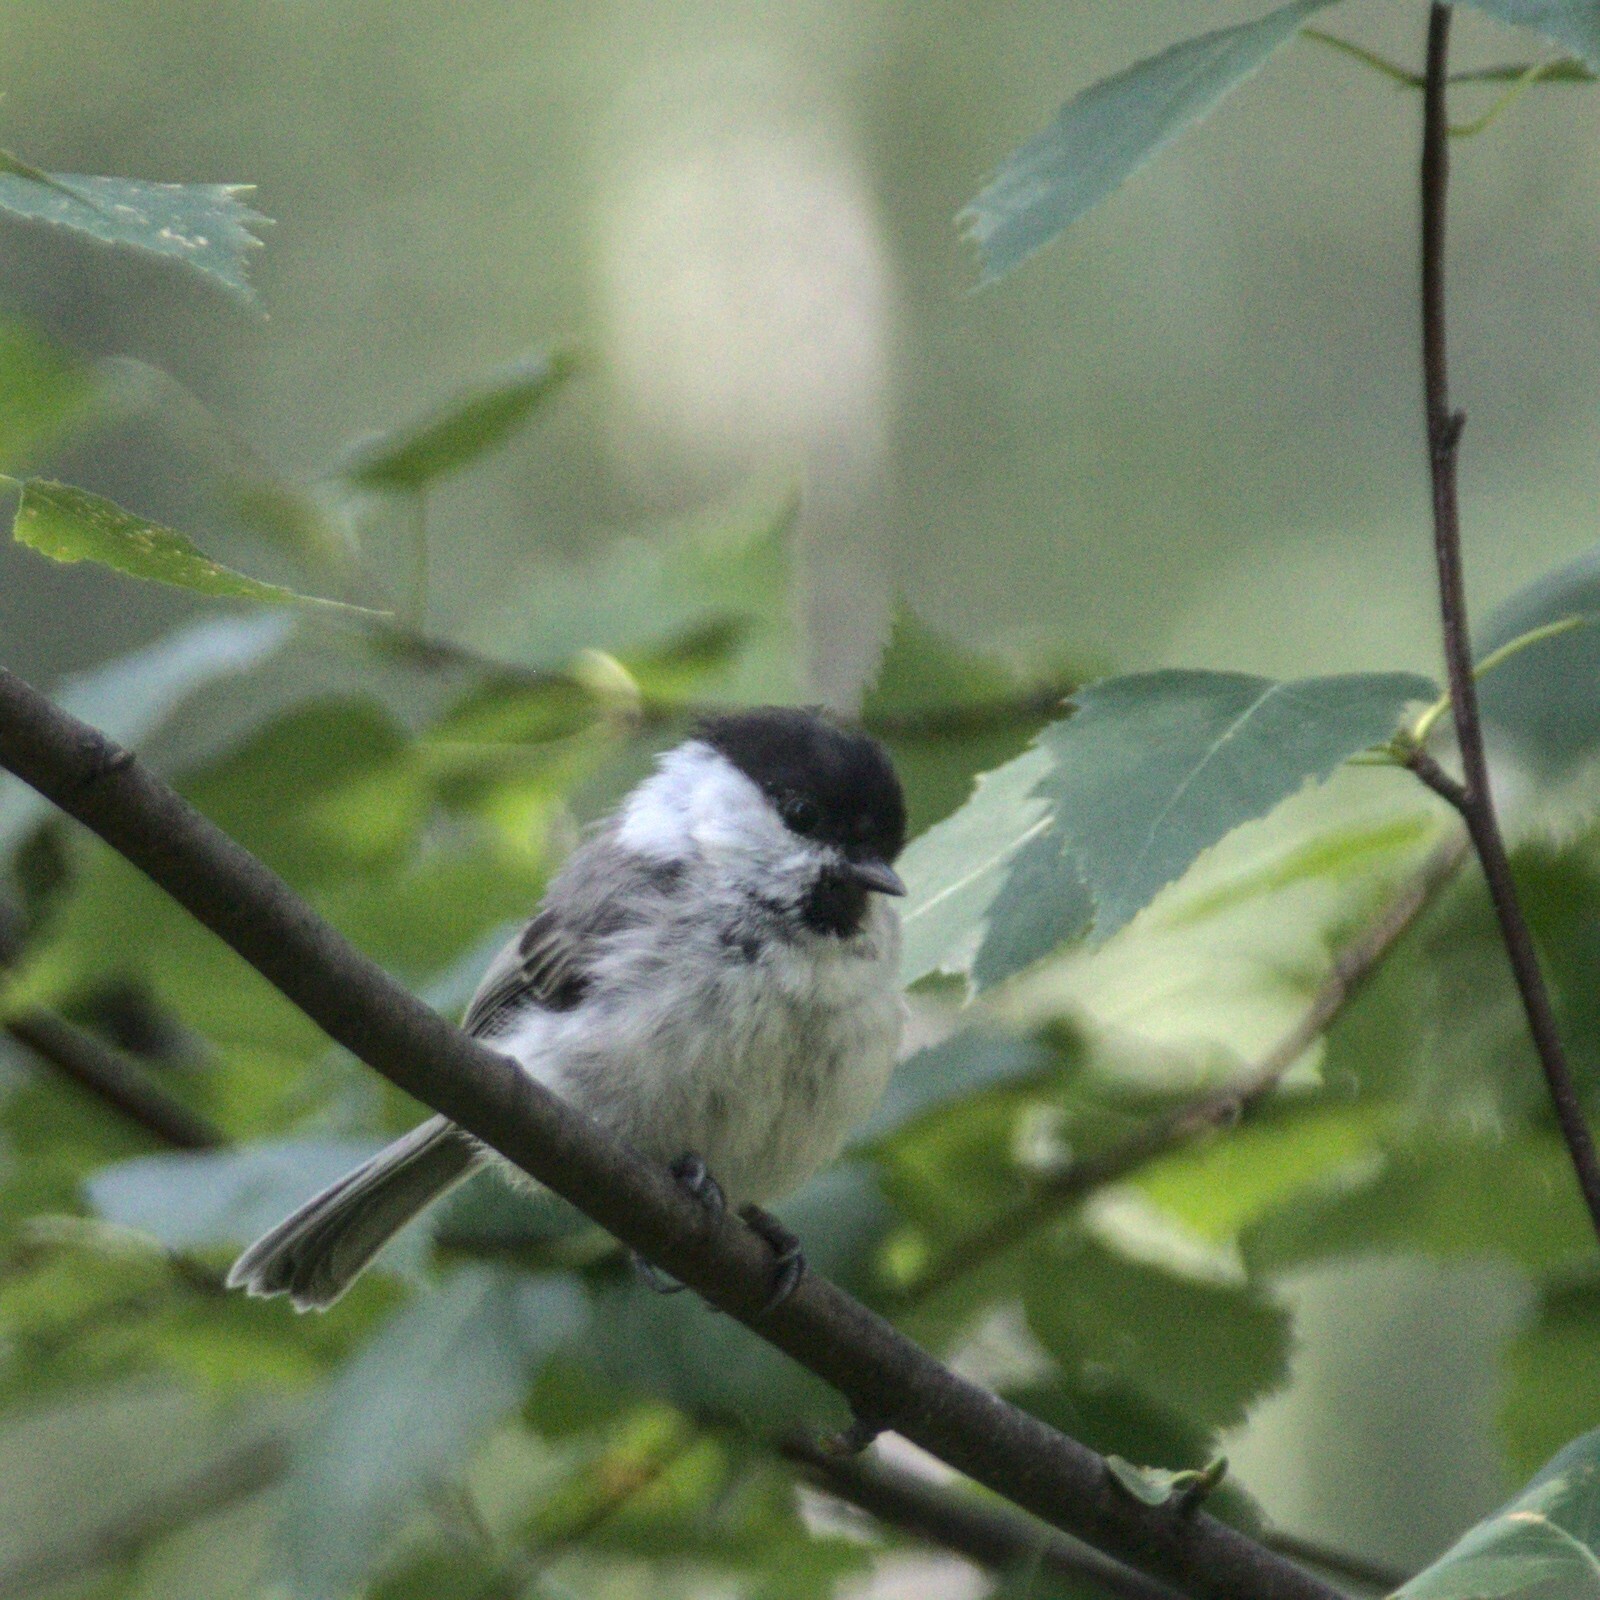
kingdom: Animalia
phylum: Chordata
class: Aves
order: Passeriformes
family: Paridae
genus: Poecile
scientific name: Poecile montanus
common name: Willow tit
